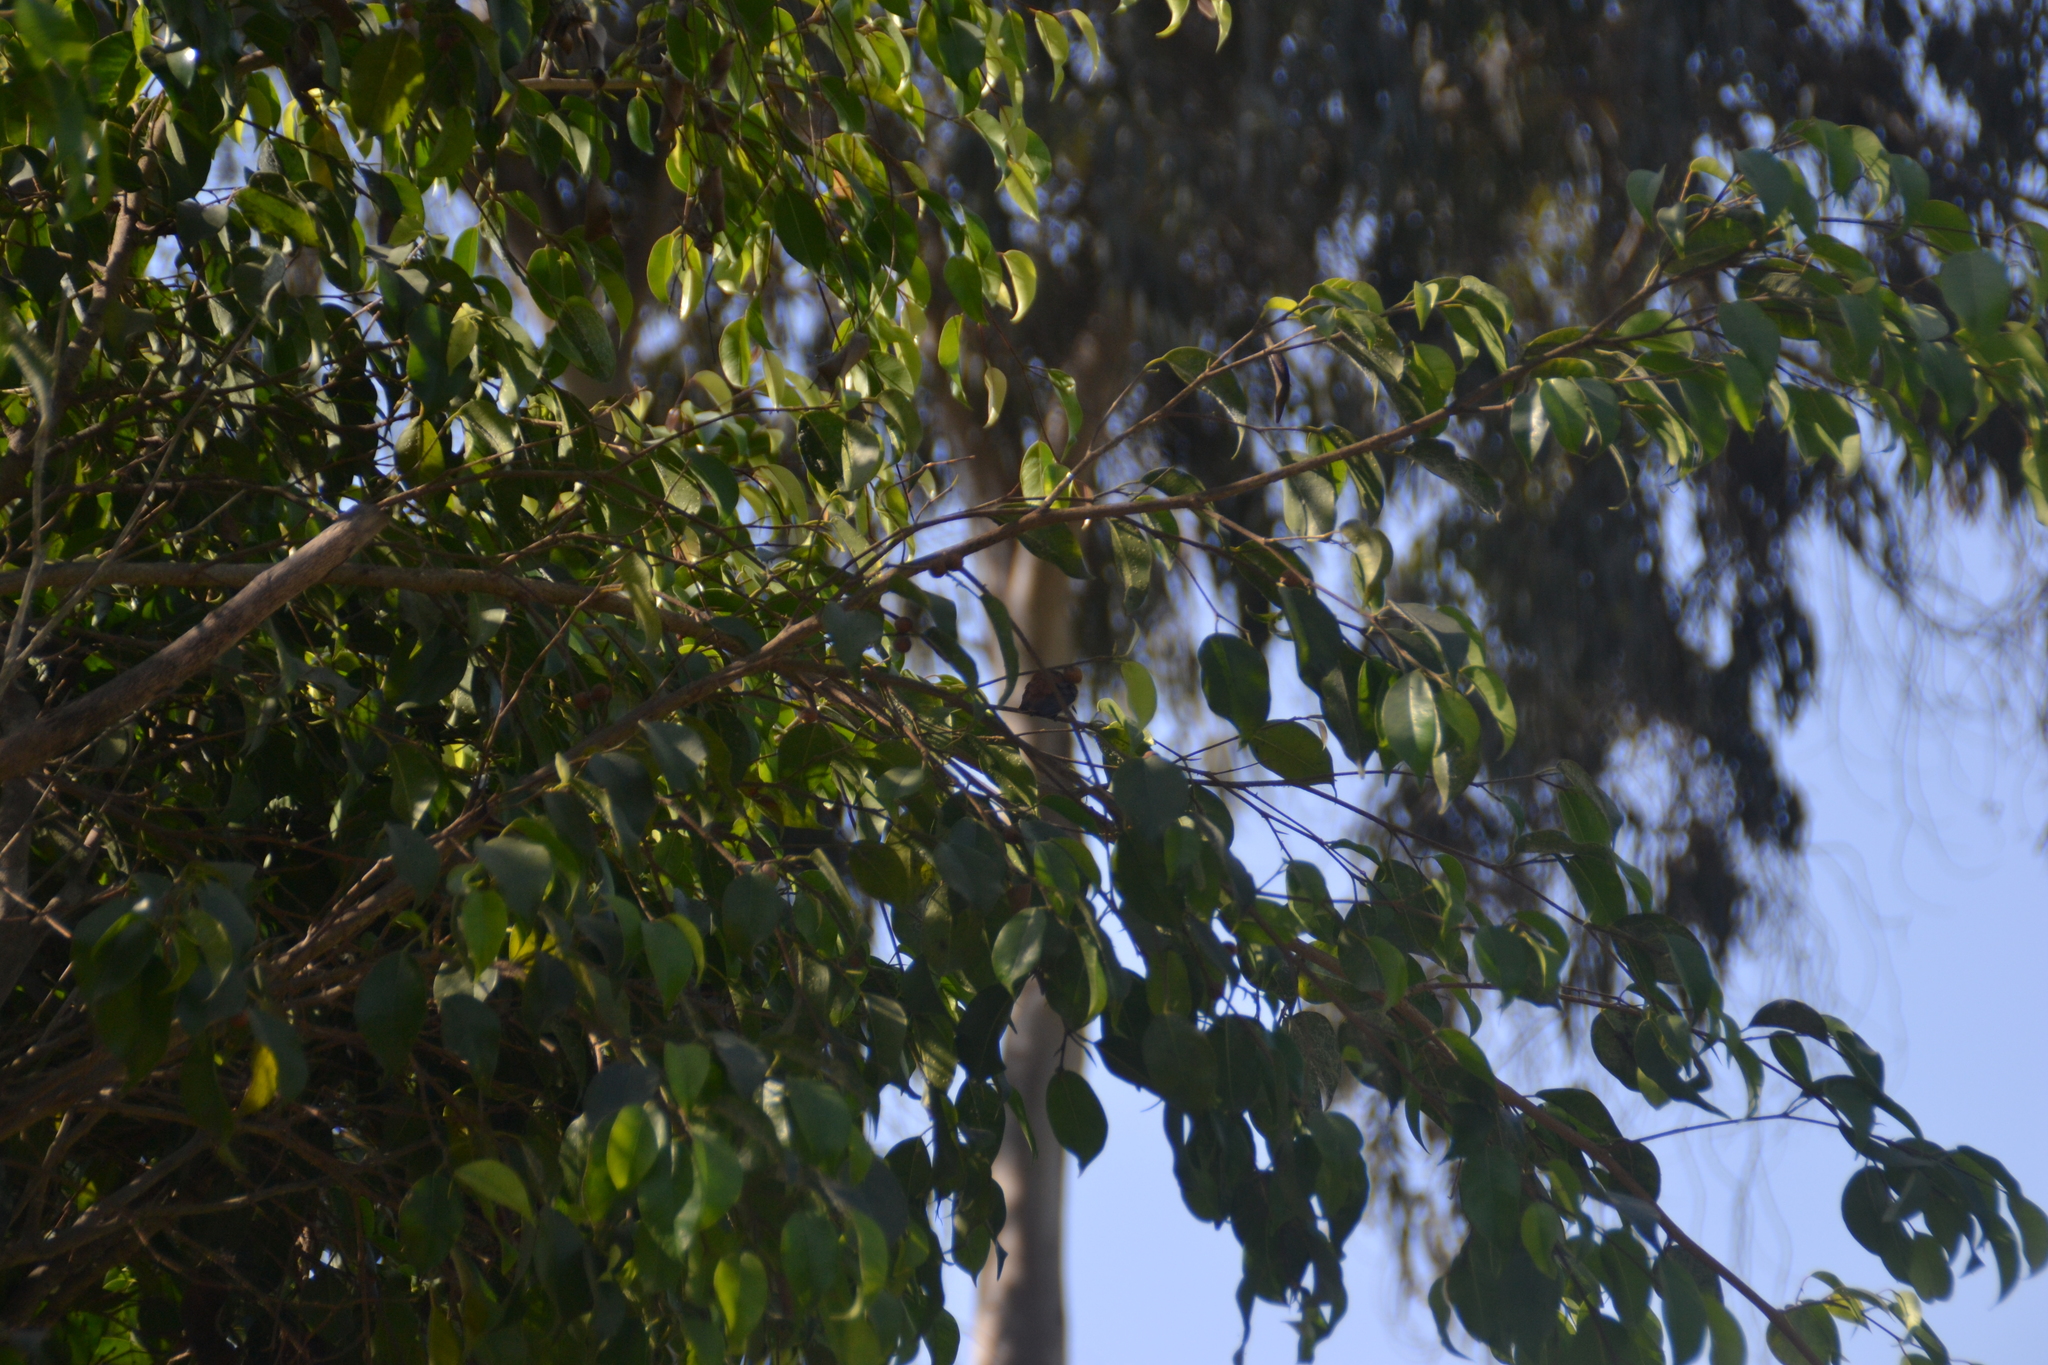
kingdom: Animalia
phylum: Chordata
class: Aves
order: Apodiformes
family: Trochilidae
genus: Amazilis
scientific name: Amazilis amazilia
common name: Amazilia hummingbird
